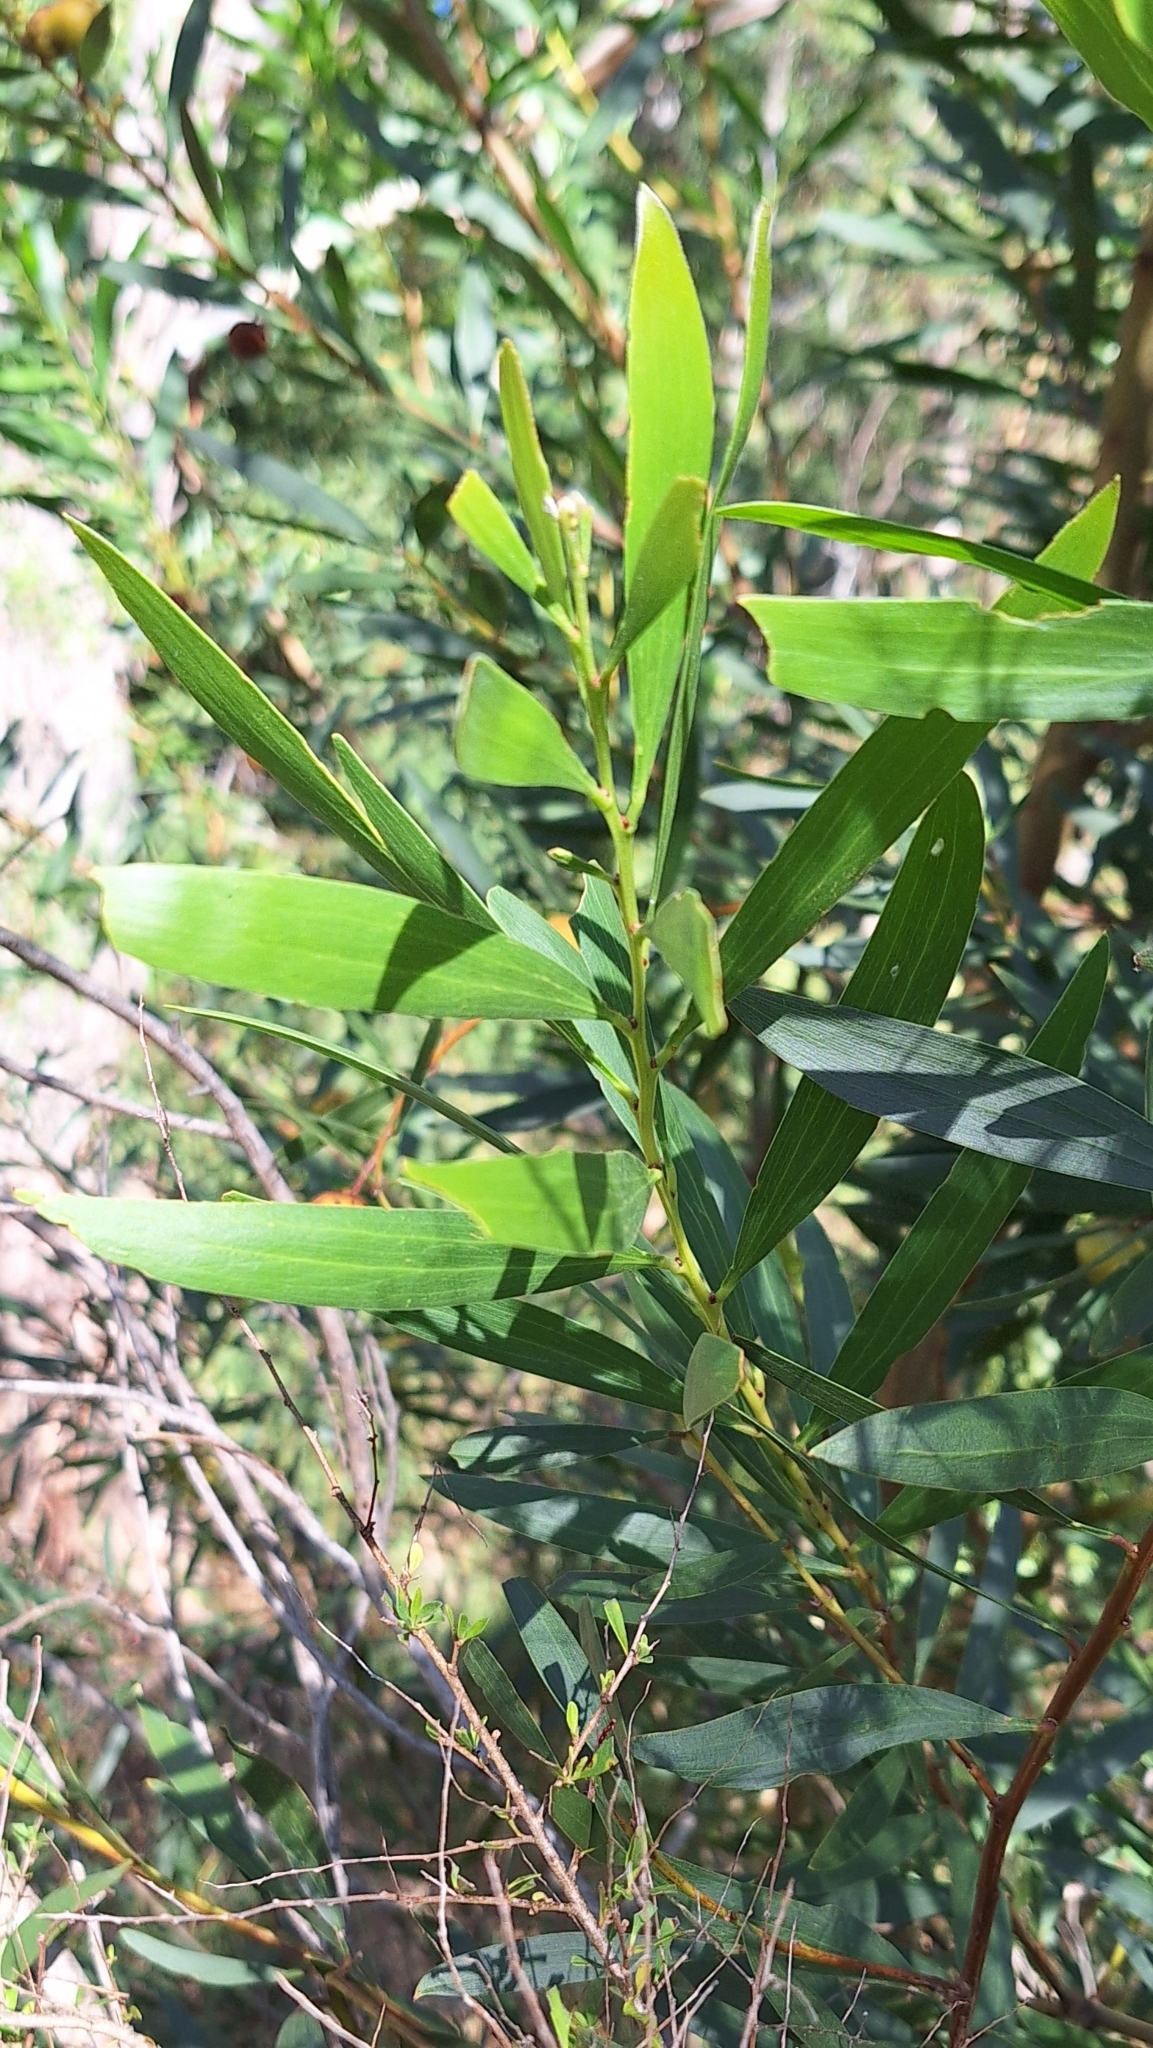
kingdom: Plantae
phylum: Tracheophyta
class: Magnoliopsida
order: Fabales
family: Fabaceae
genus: Acacia
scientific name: Acacia longifolia
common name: Sydney golden wattle
